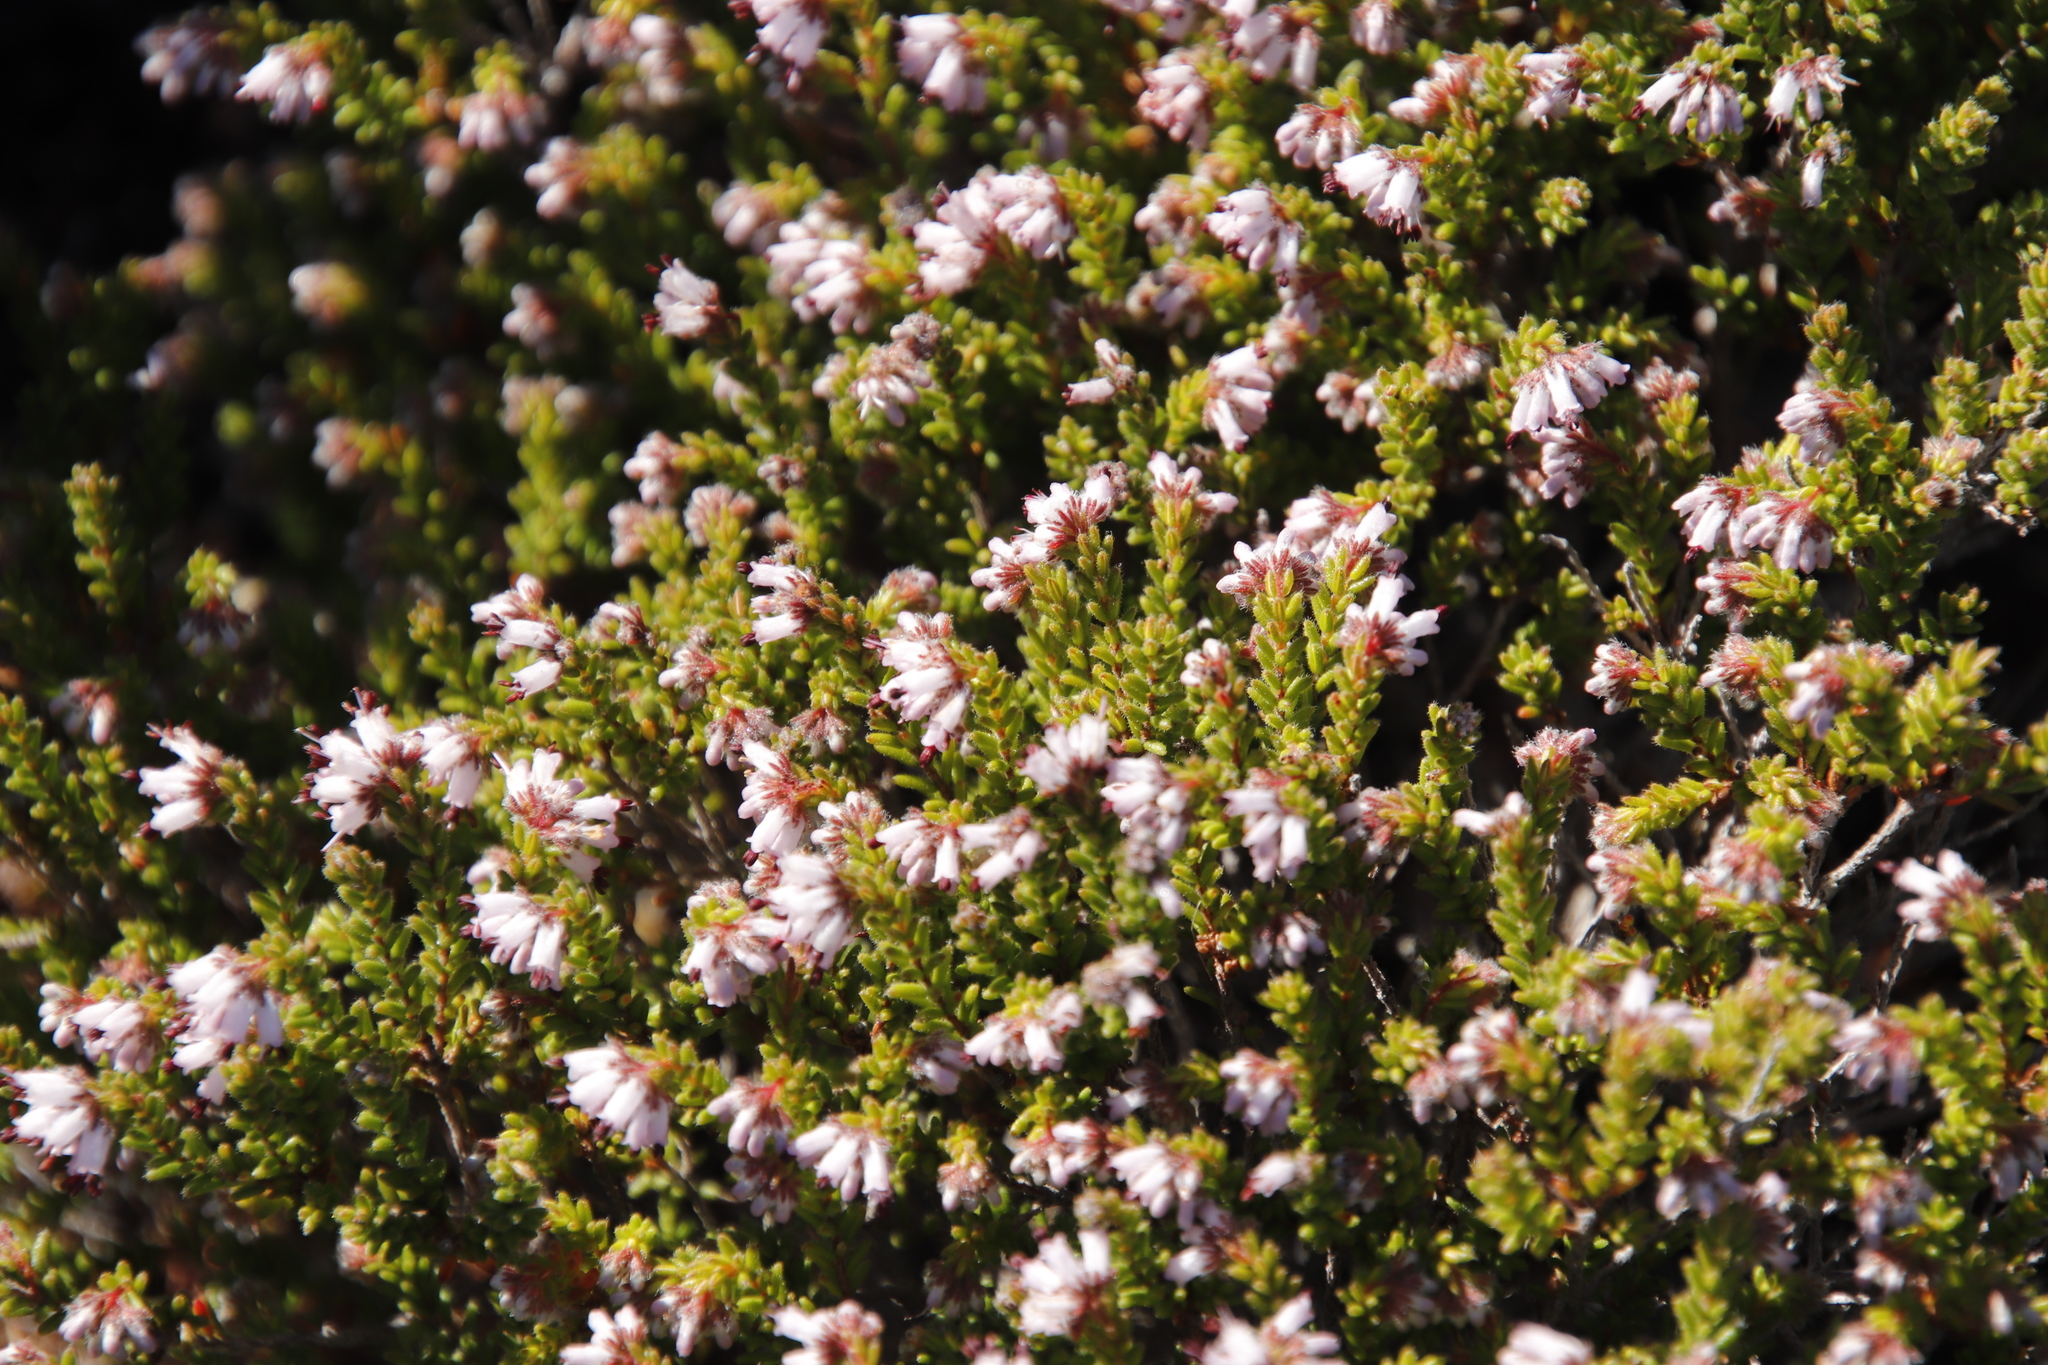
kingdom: Plantae
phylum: Tracheophyta
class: Magnoliopsida
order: Ericales
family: Ericaceae
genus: Erica
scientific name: Erica ericoides
